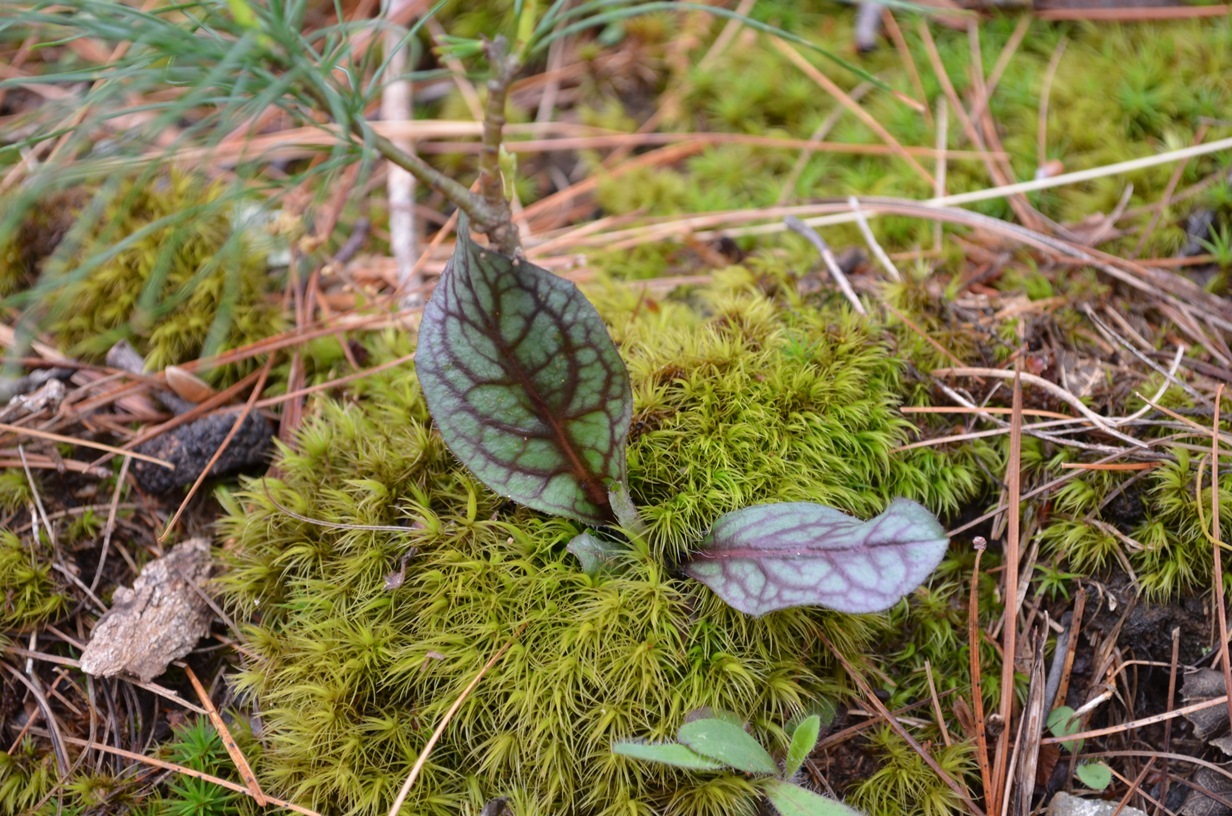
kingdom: Plantae
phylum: Tracheophyta
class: Magnoliopsida
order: Asterales
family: Asteraceae
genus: Hieracium
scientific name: Hieracium venosum
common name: Rattlesnake hawkweed
